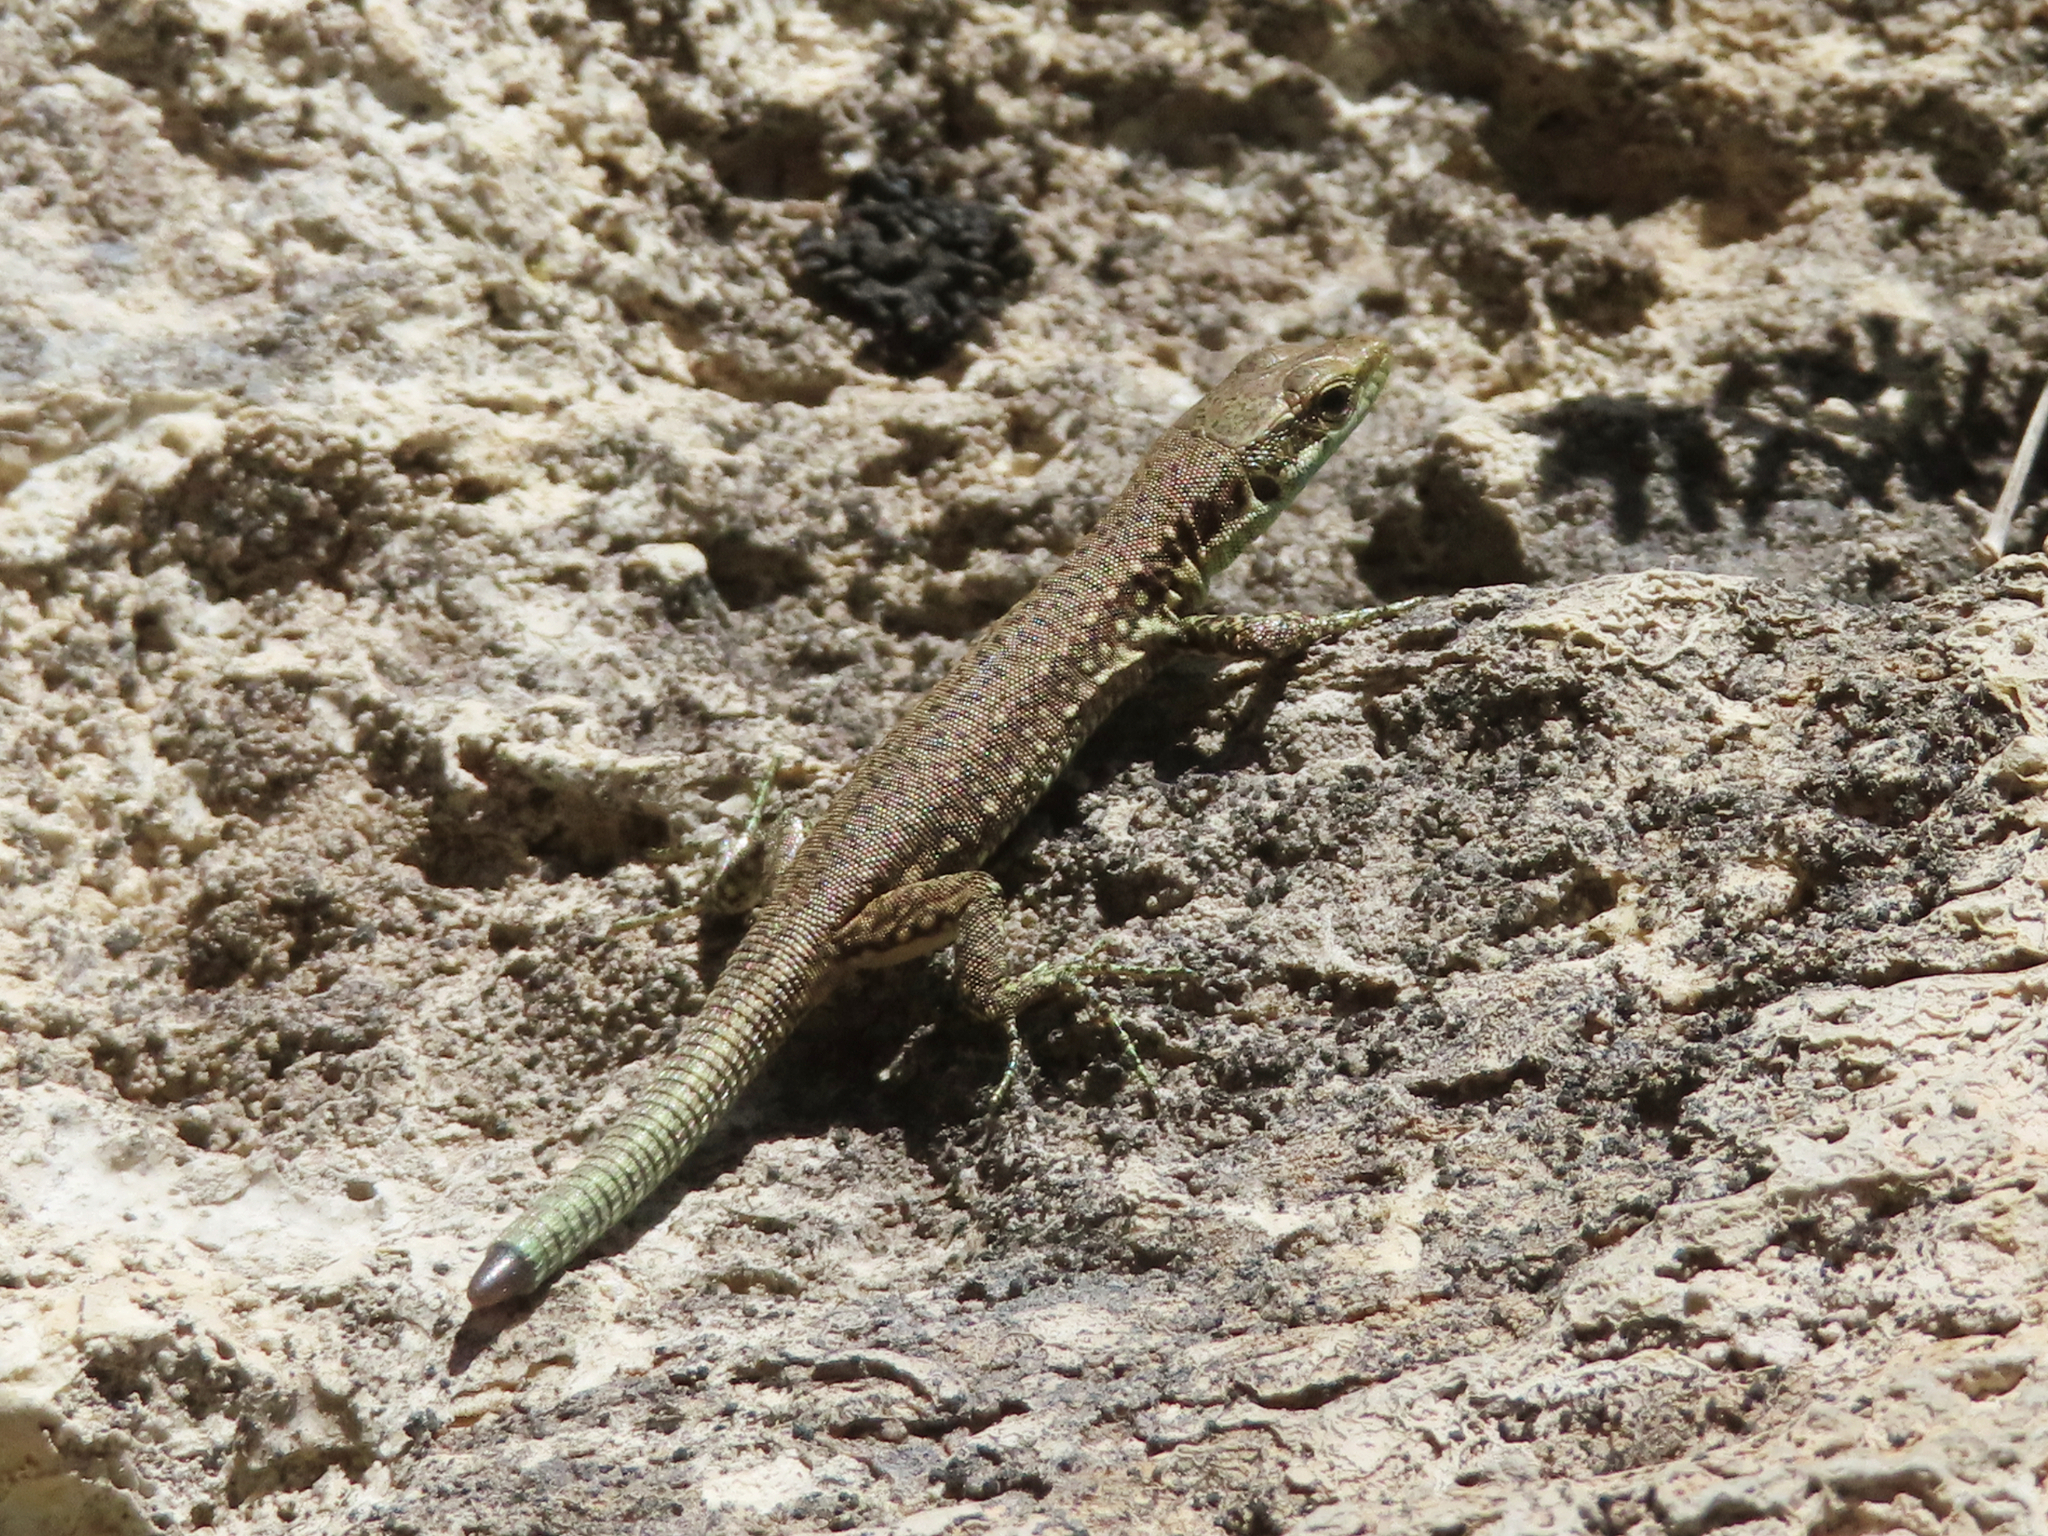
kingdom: Animalia
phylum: Chordata
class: Squamata
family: Lacertidae
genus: Darevskia
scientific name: Darevskia raddei
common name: Radde's lizard
